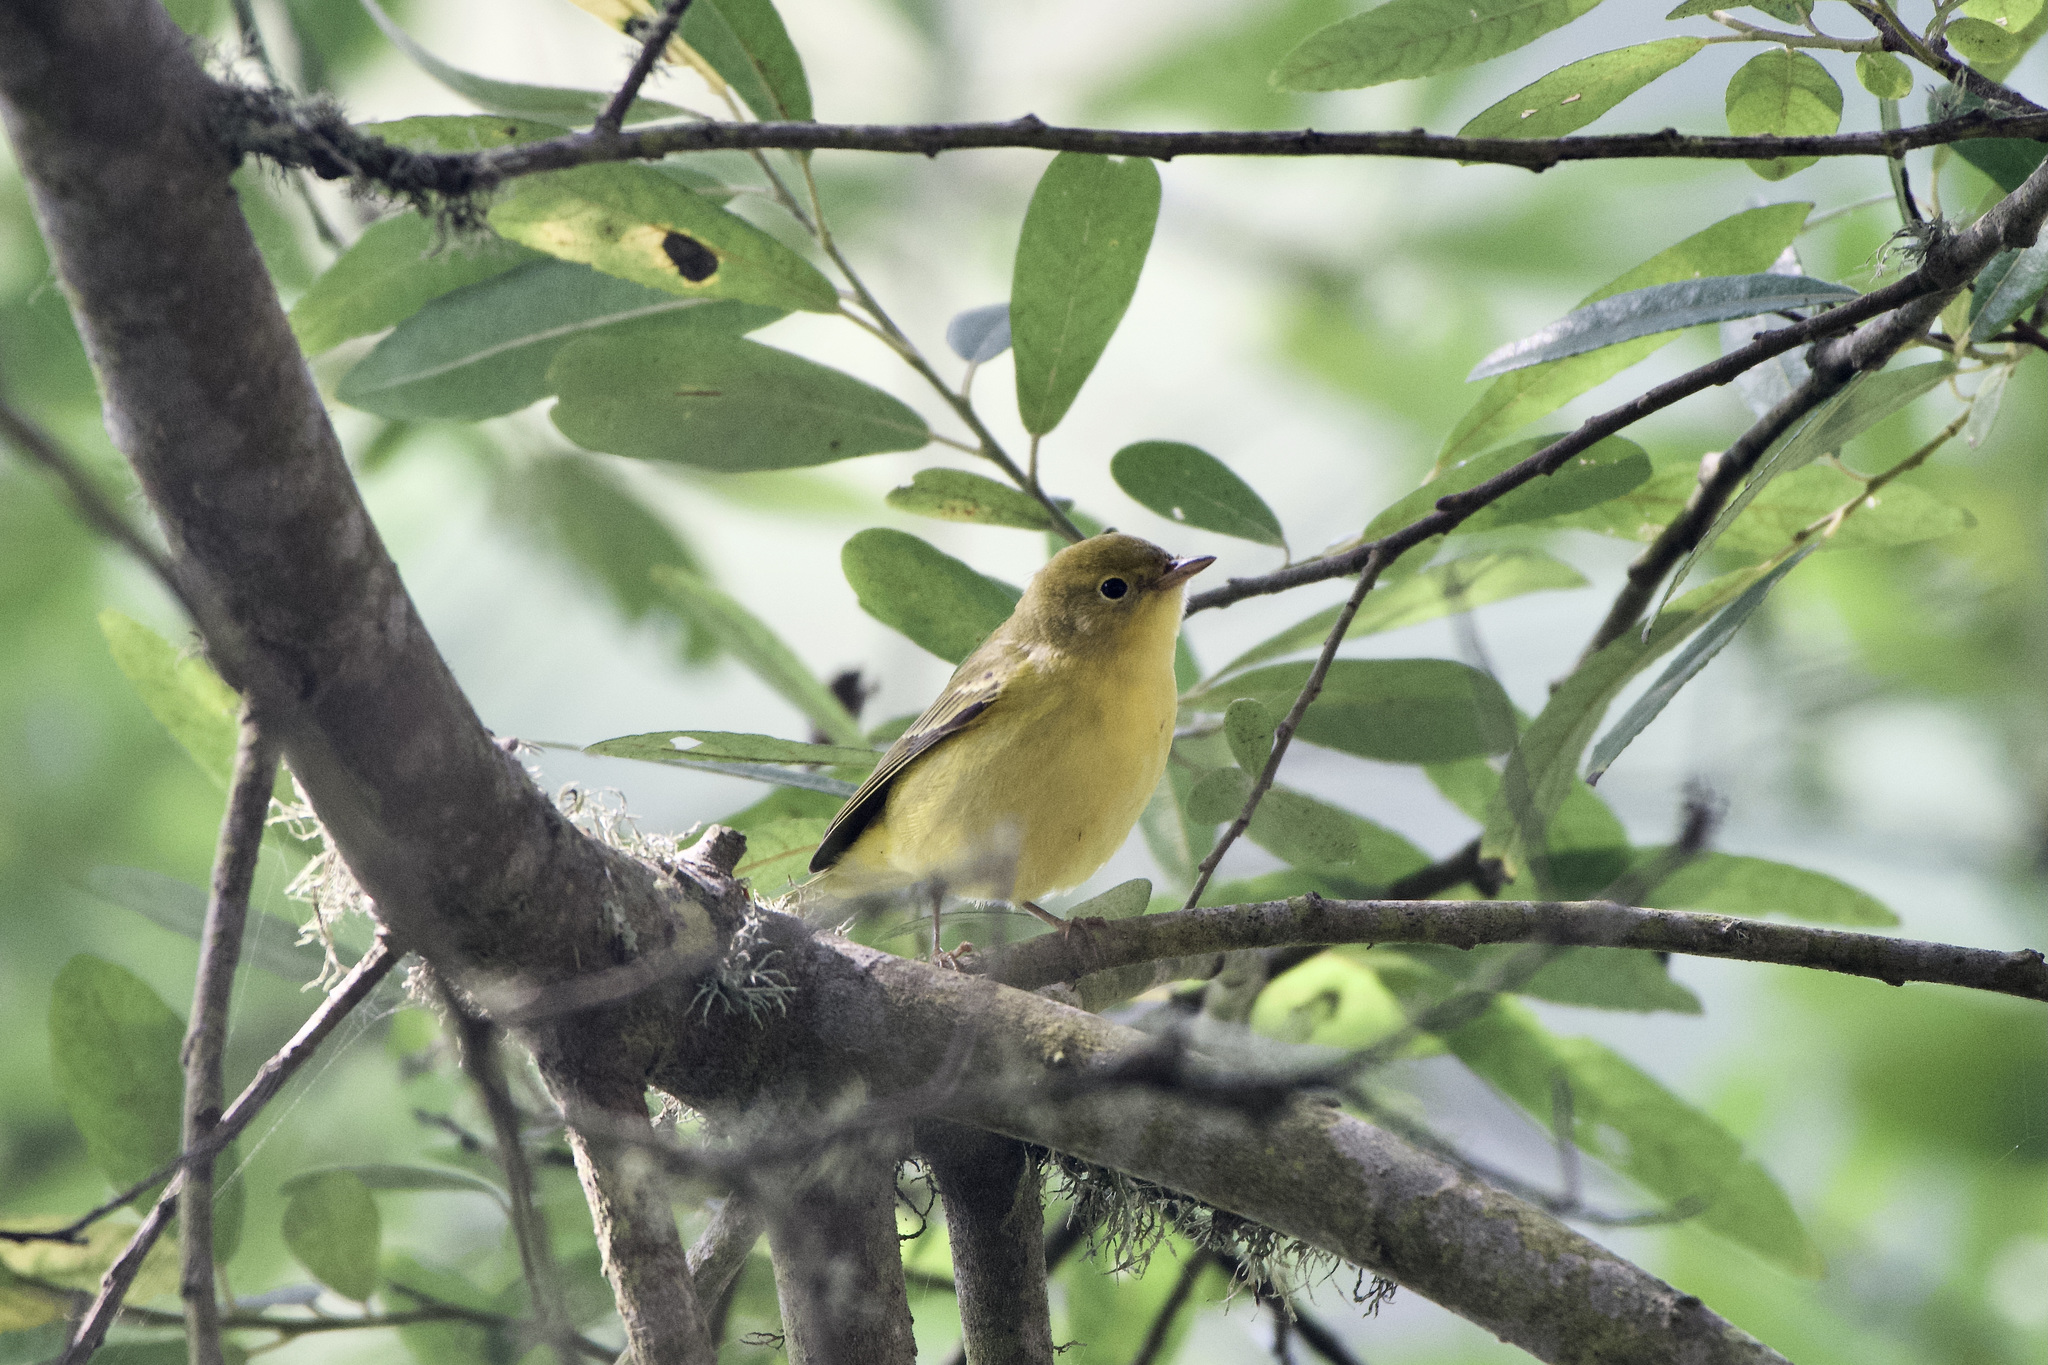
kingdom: Animalia
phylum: Chordata
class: Aves
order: Passeriformes
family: Parulidae
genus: Setophaga
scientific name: Setophaga petechia
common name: Yellow warbler
